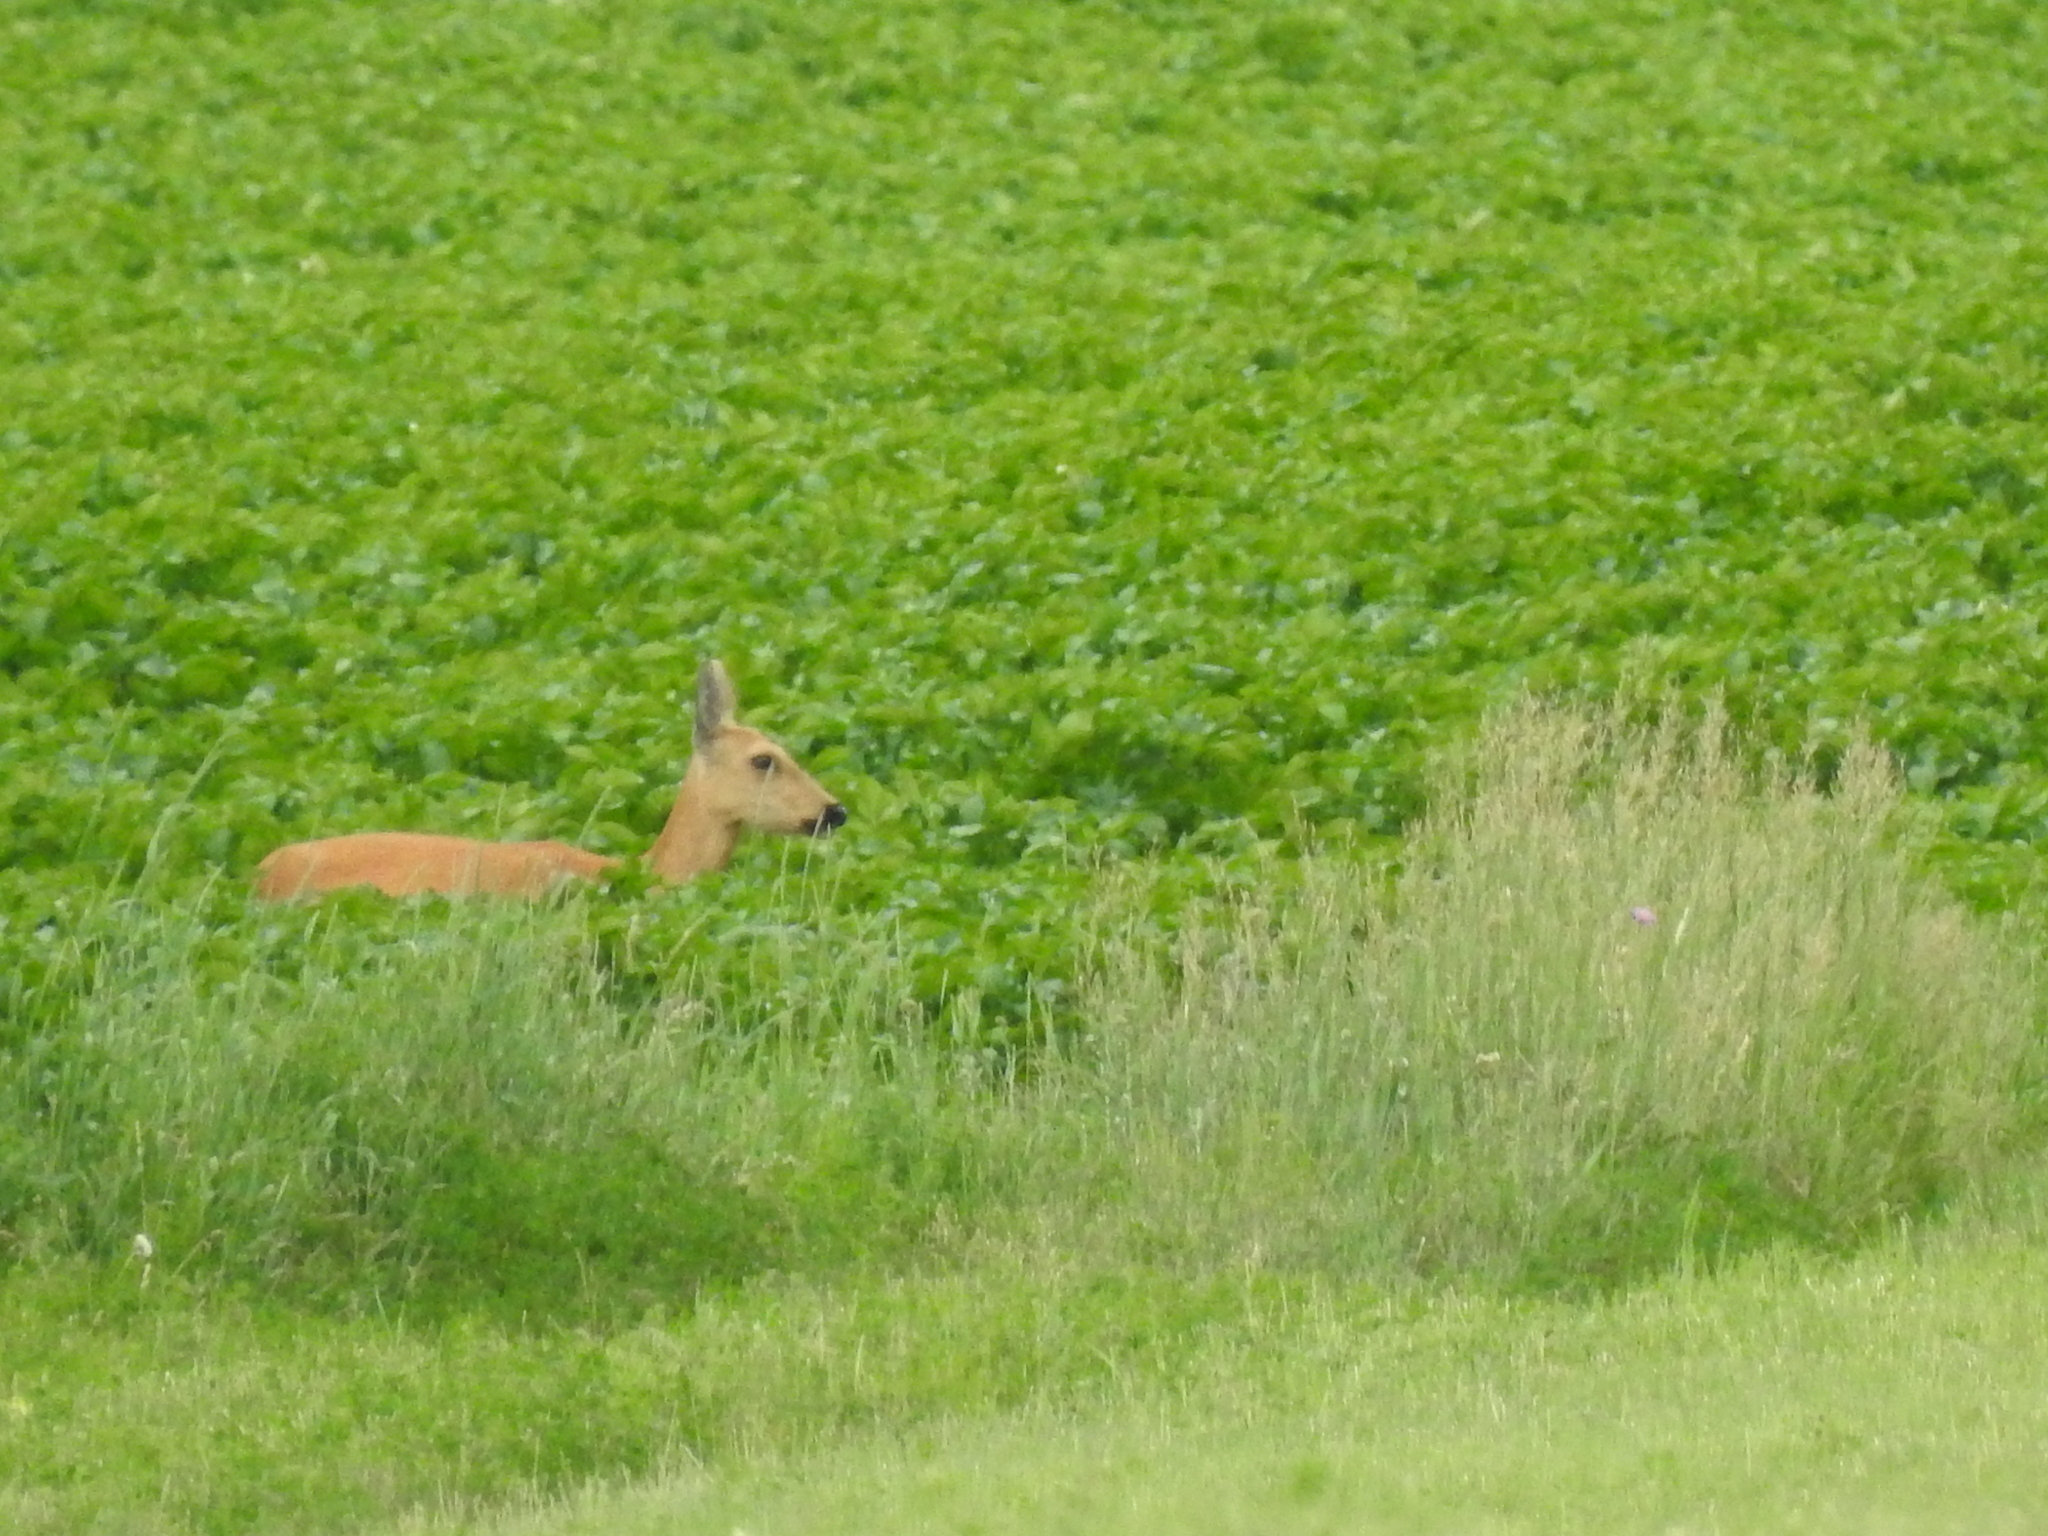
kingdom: Animalia
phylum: Chordata
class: Mammalia
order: Artiodactyla
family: Cervidae
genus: Capreolus
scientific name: Capreolus pygargus
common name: Siberian roe
